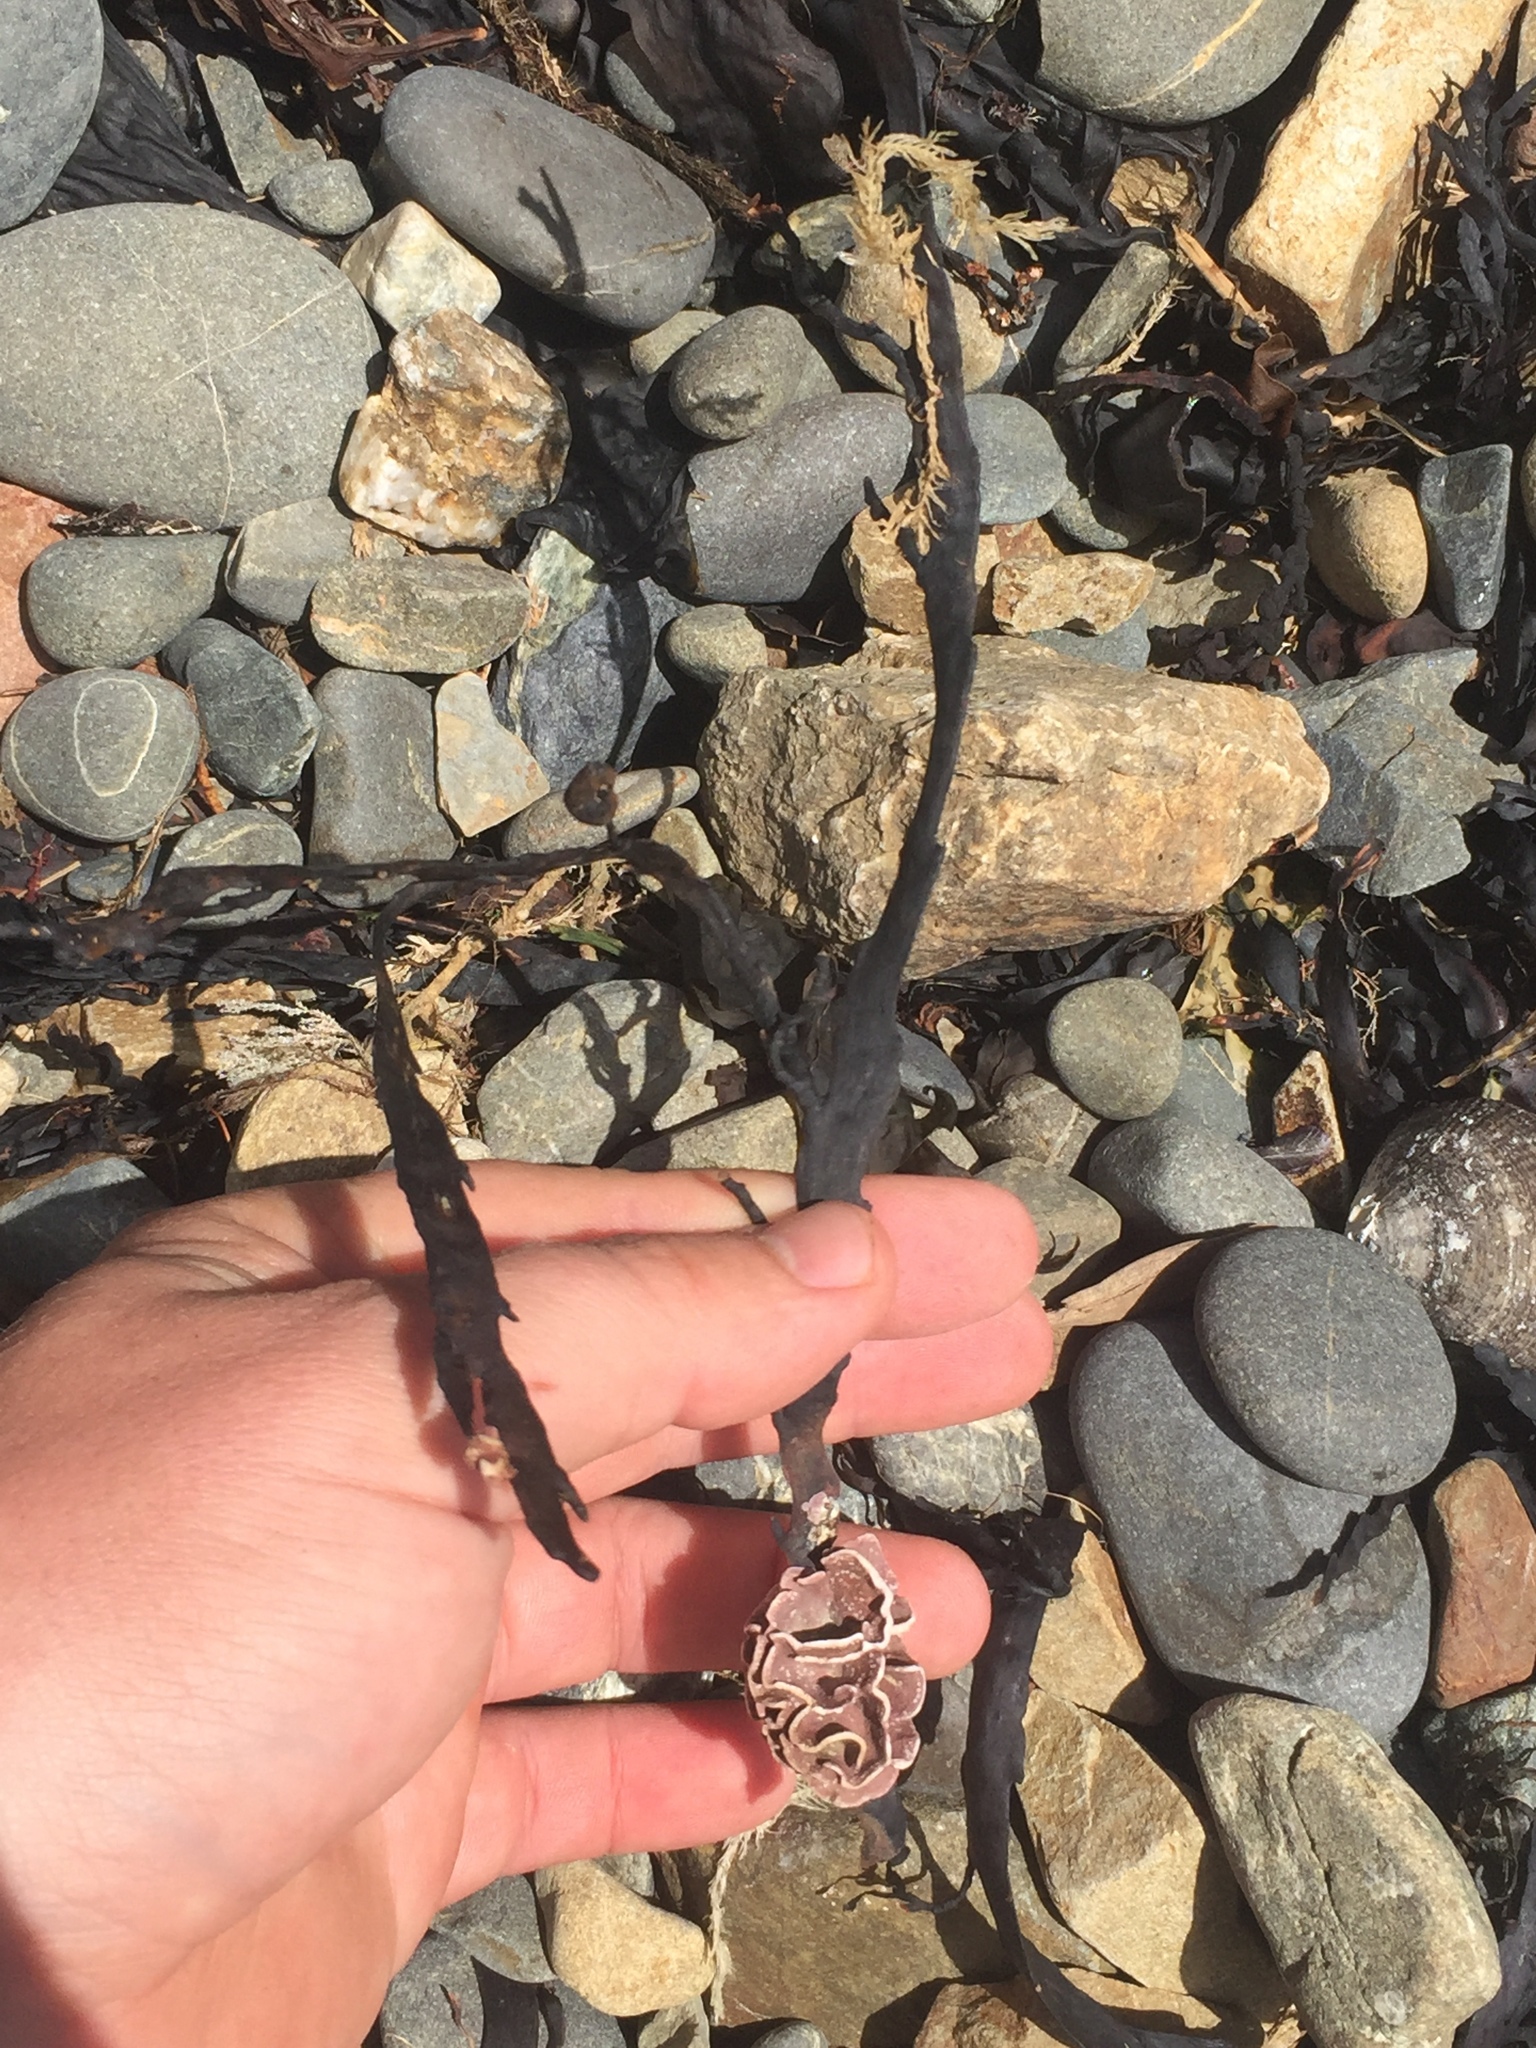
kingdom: Plantae
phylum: Rhodophyta
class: Florideophyceae
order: Corallinales
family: Lithophyllaceae
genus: Lithophyllum
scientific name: Lithophyllum carpophylli
